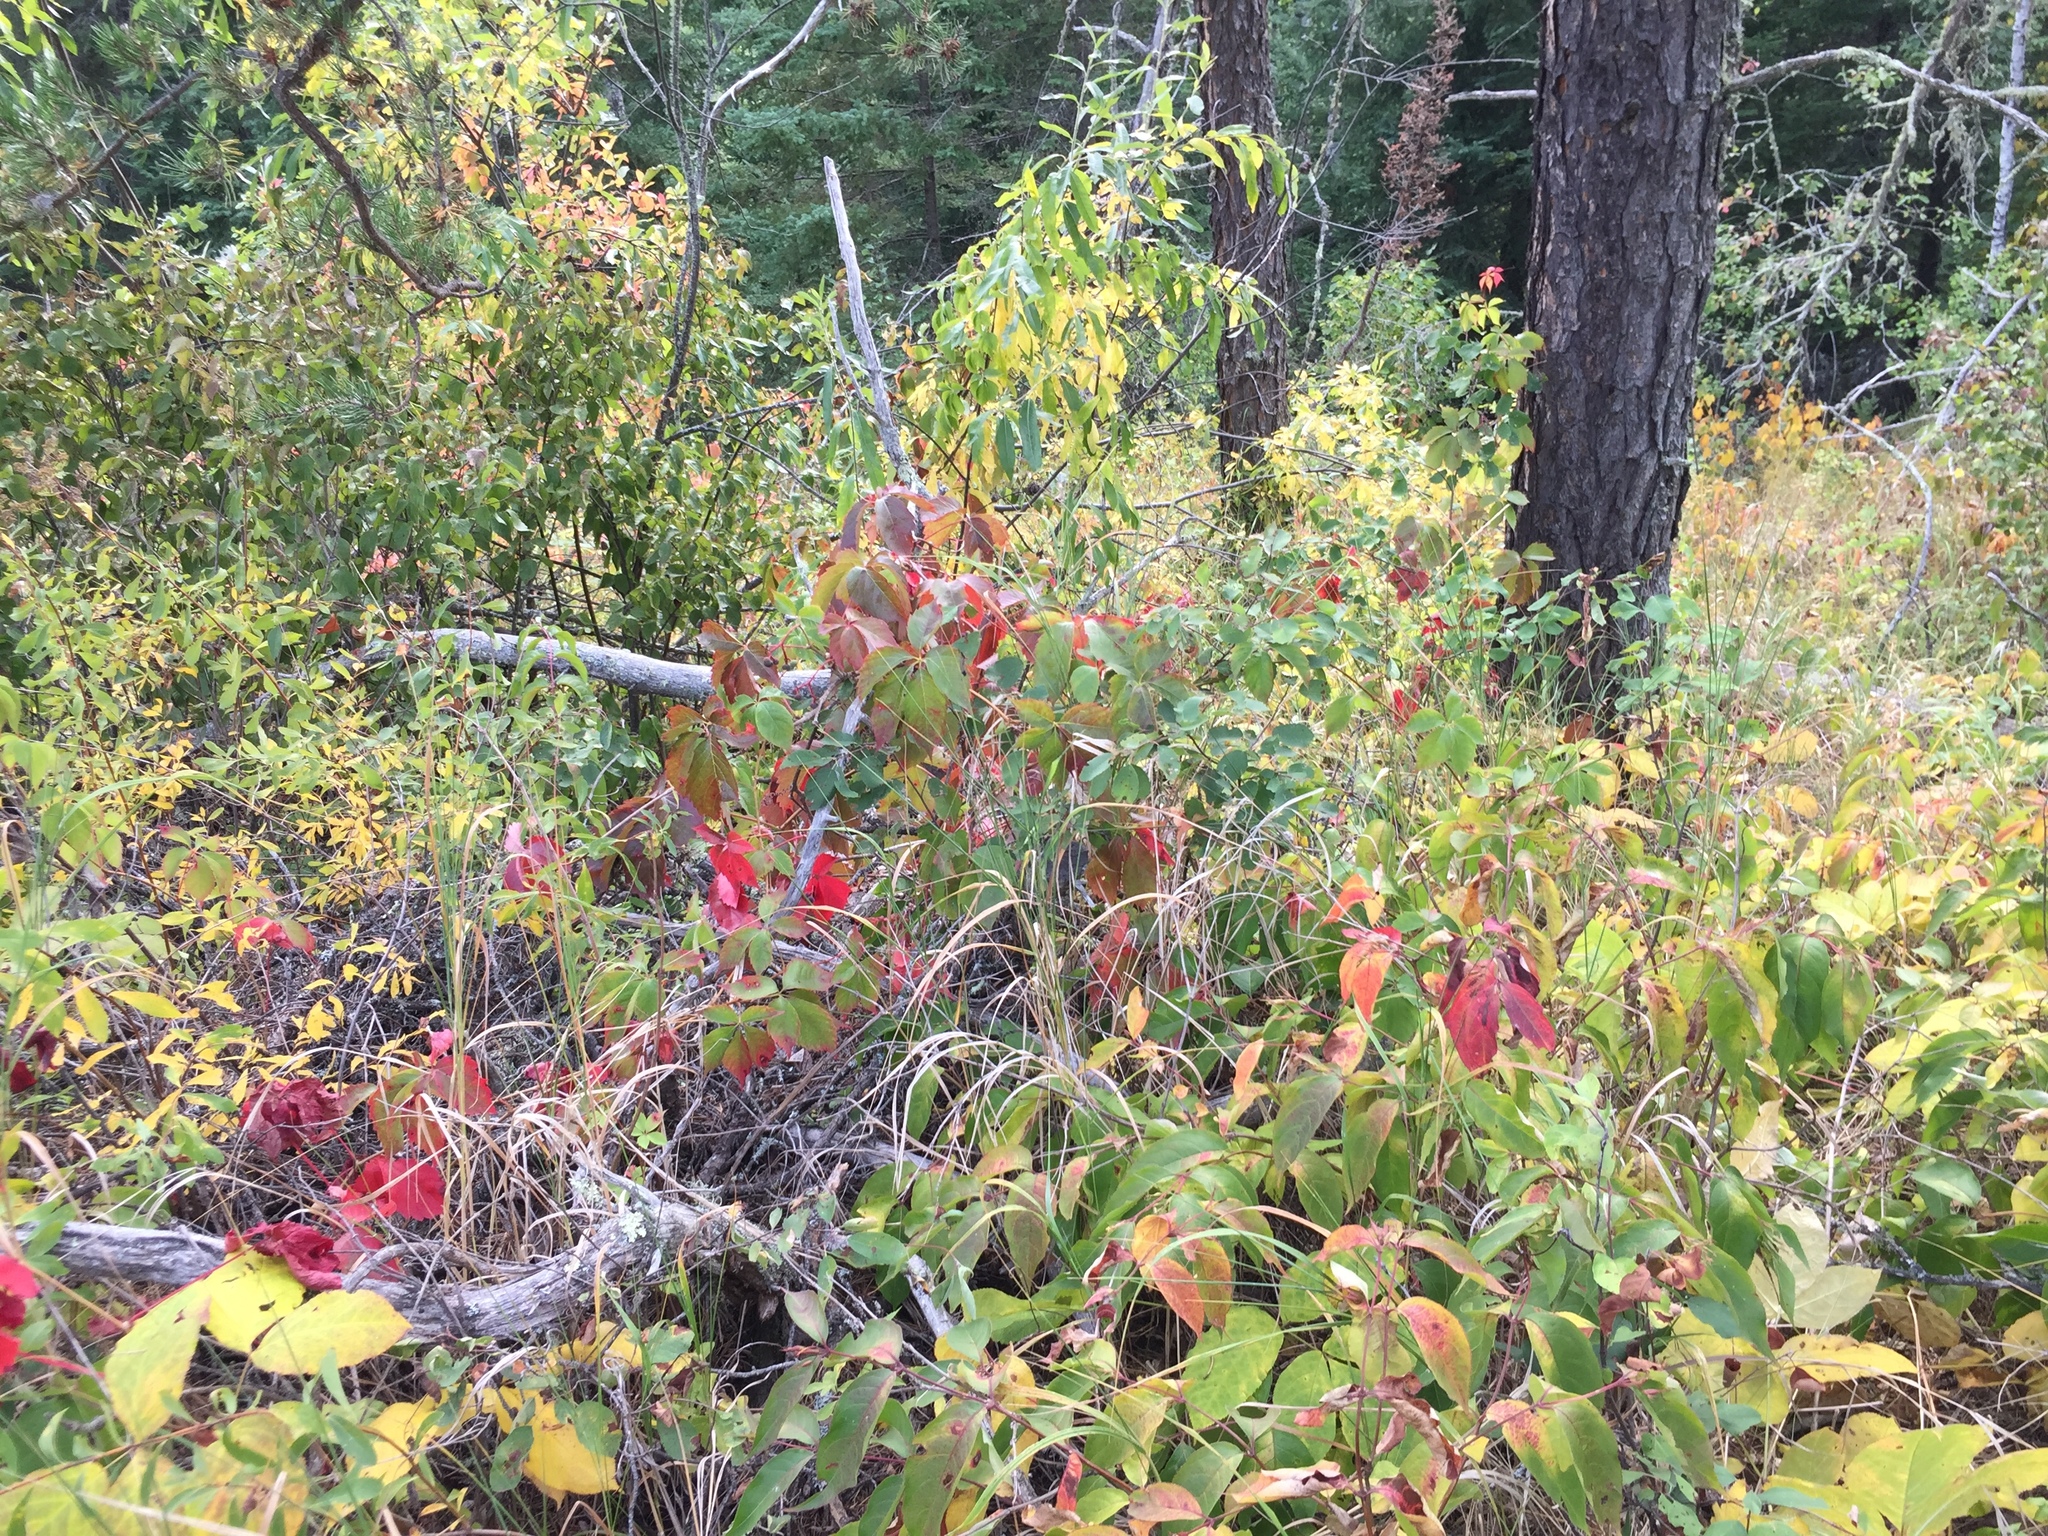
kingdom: Plantae
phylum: Tracheophyta
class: Magnoliopsida
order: Vitales
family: Vitaceae
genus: Parthenocissus
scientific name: Parthenocissus quinquefolia
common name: Virginia-creeper
